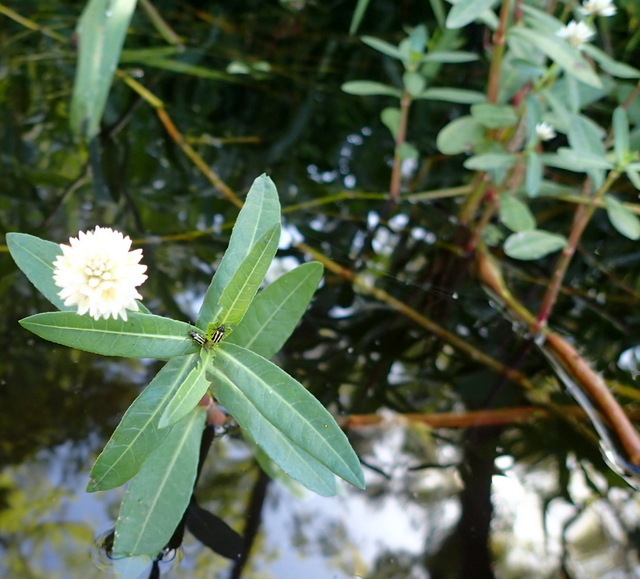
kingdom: Plantae
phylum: Tracheophyta
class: Magnoliopsida
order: Caryophyllales
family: Amaranthaceae
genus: Alternanthera
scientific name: Alternanthera philoxeroides
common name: Alligatorweed
